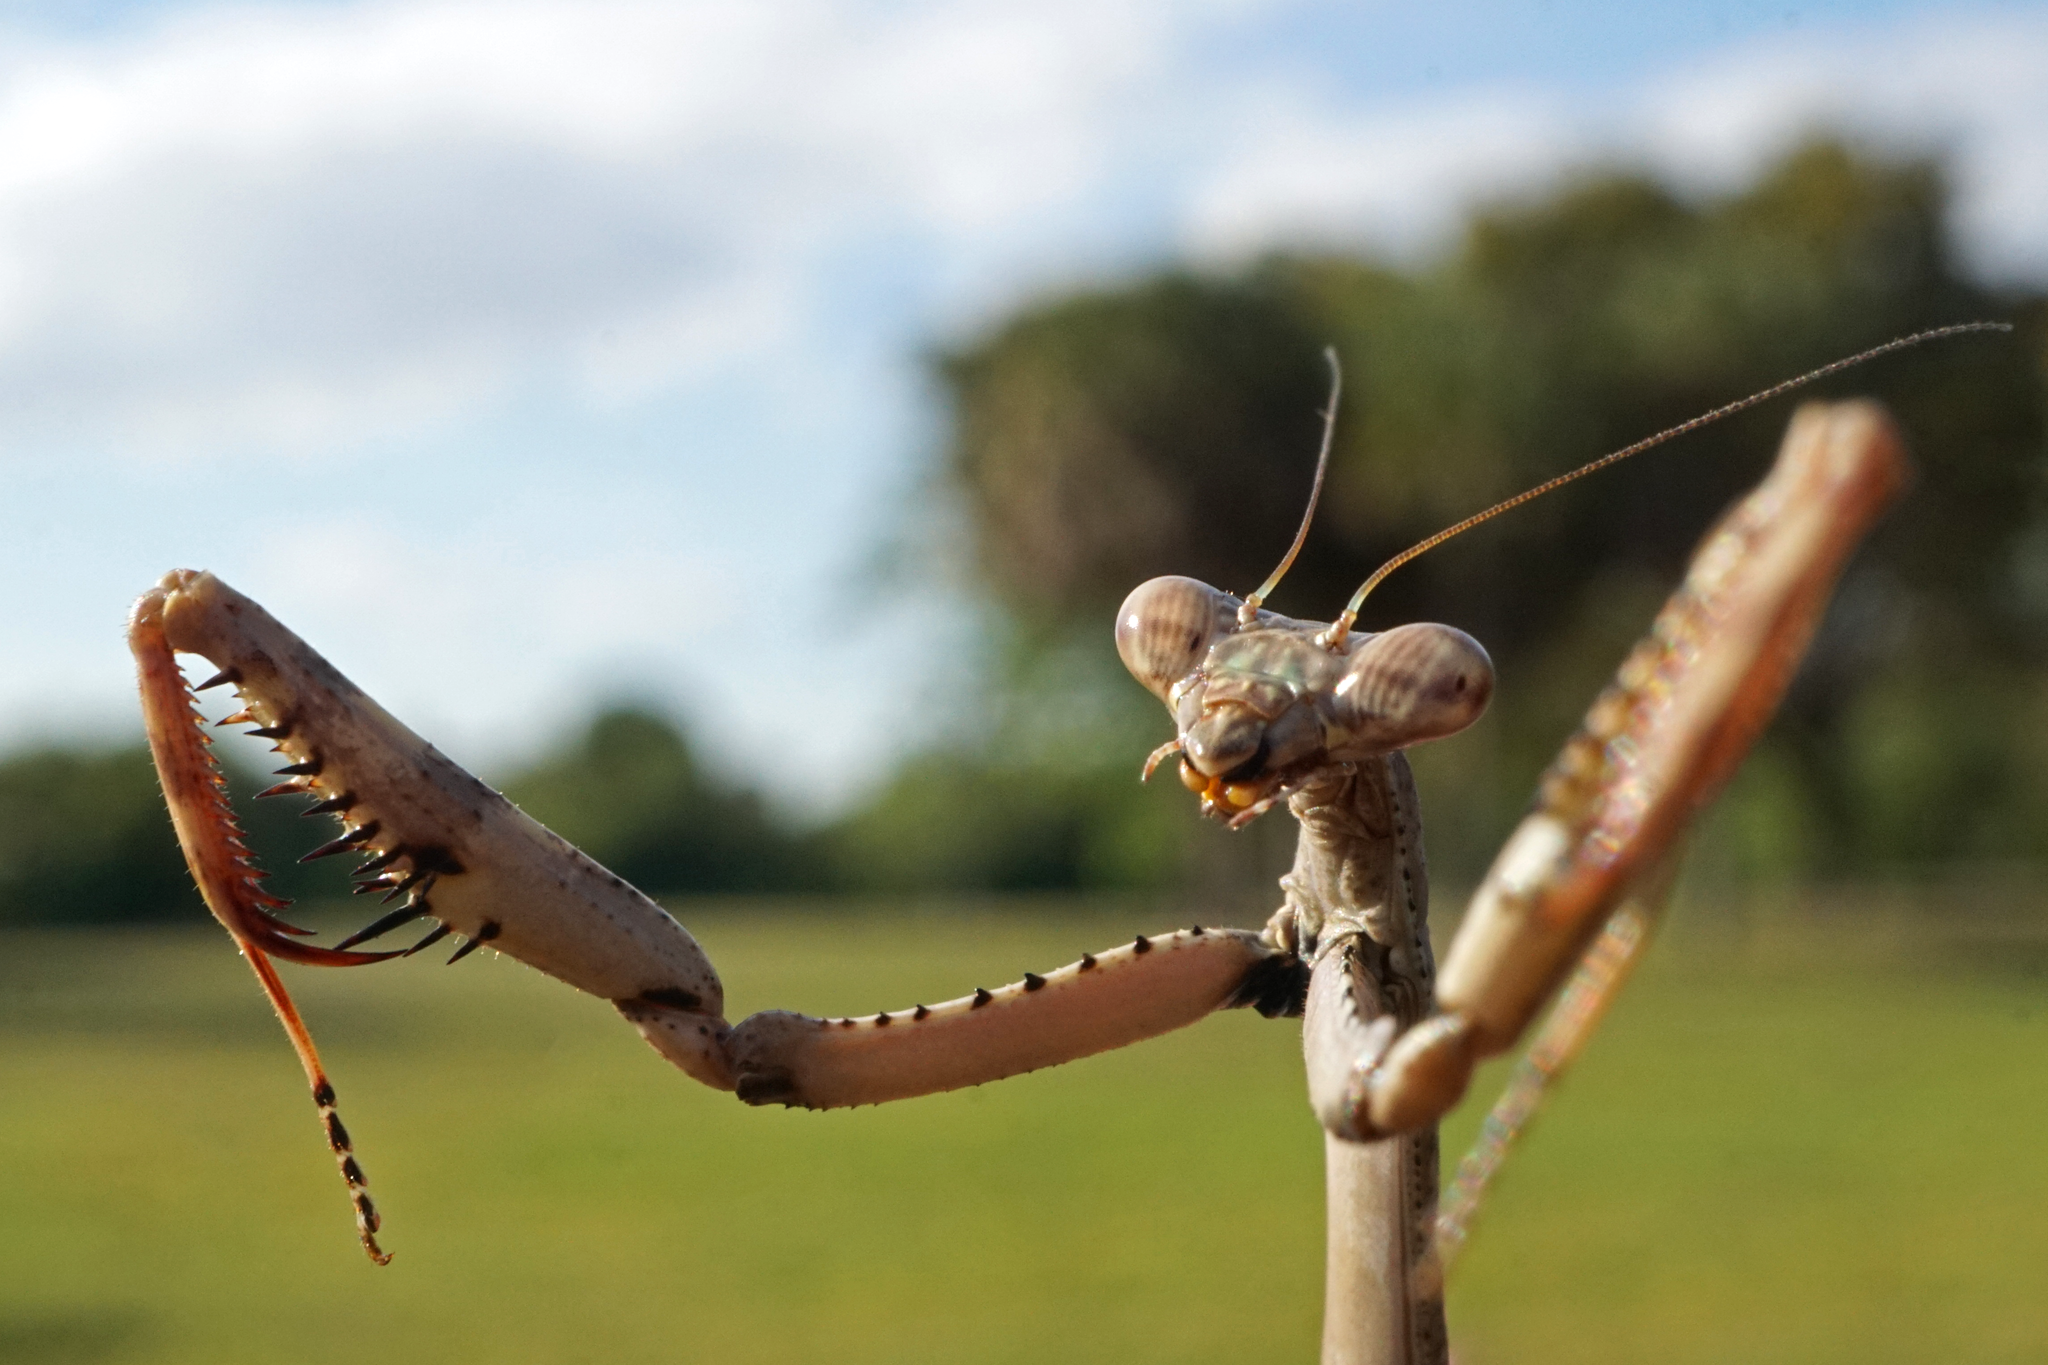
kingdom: Animalia
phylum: Arthropoda
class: Insecta
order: Mantodea
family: Mantidae
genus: Stagmomantis
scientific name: Stagmomantis carolina
